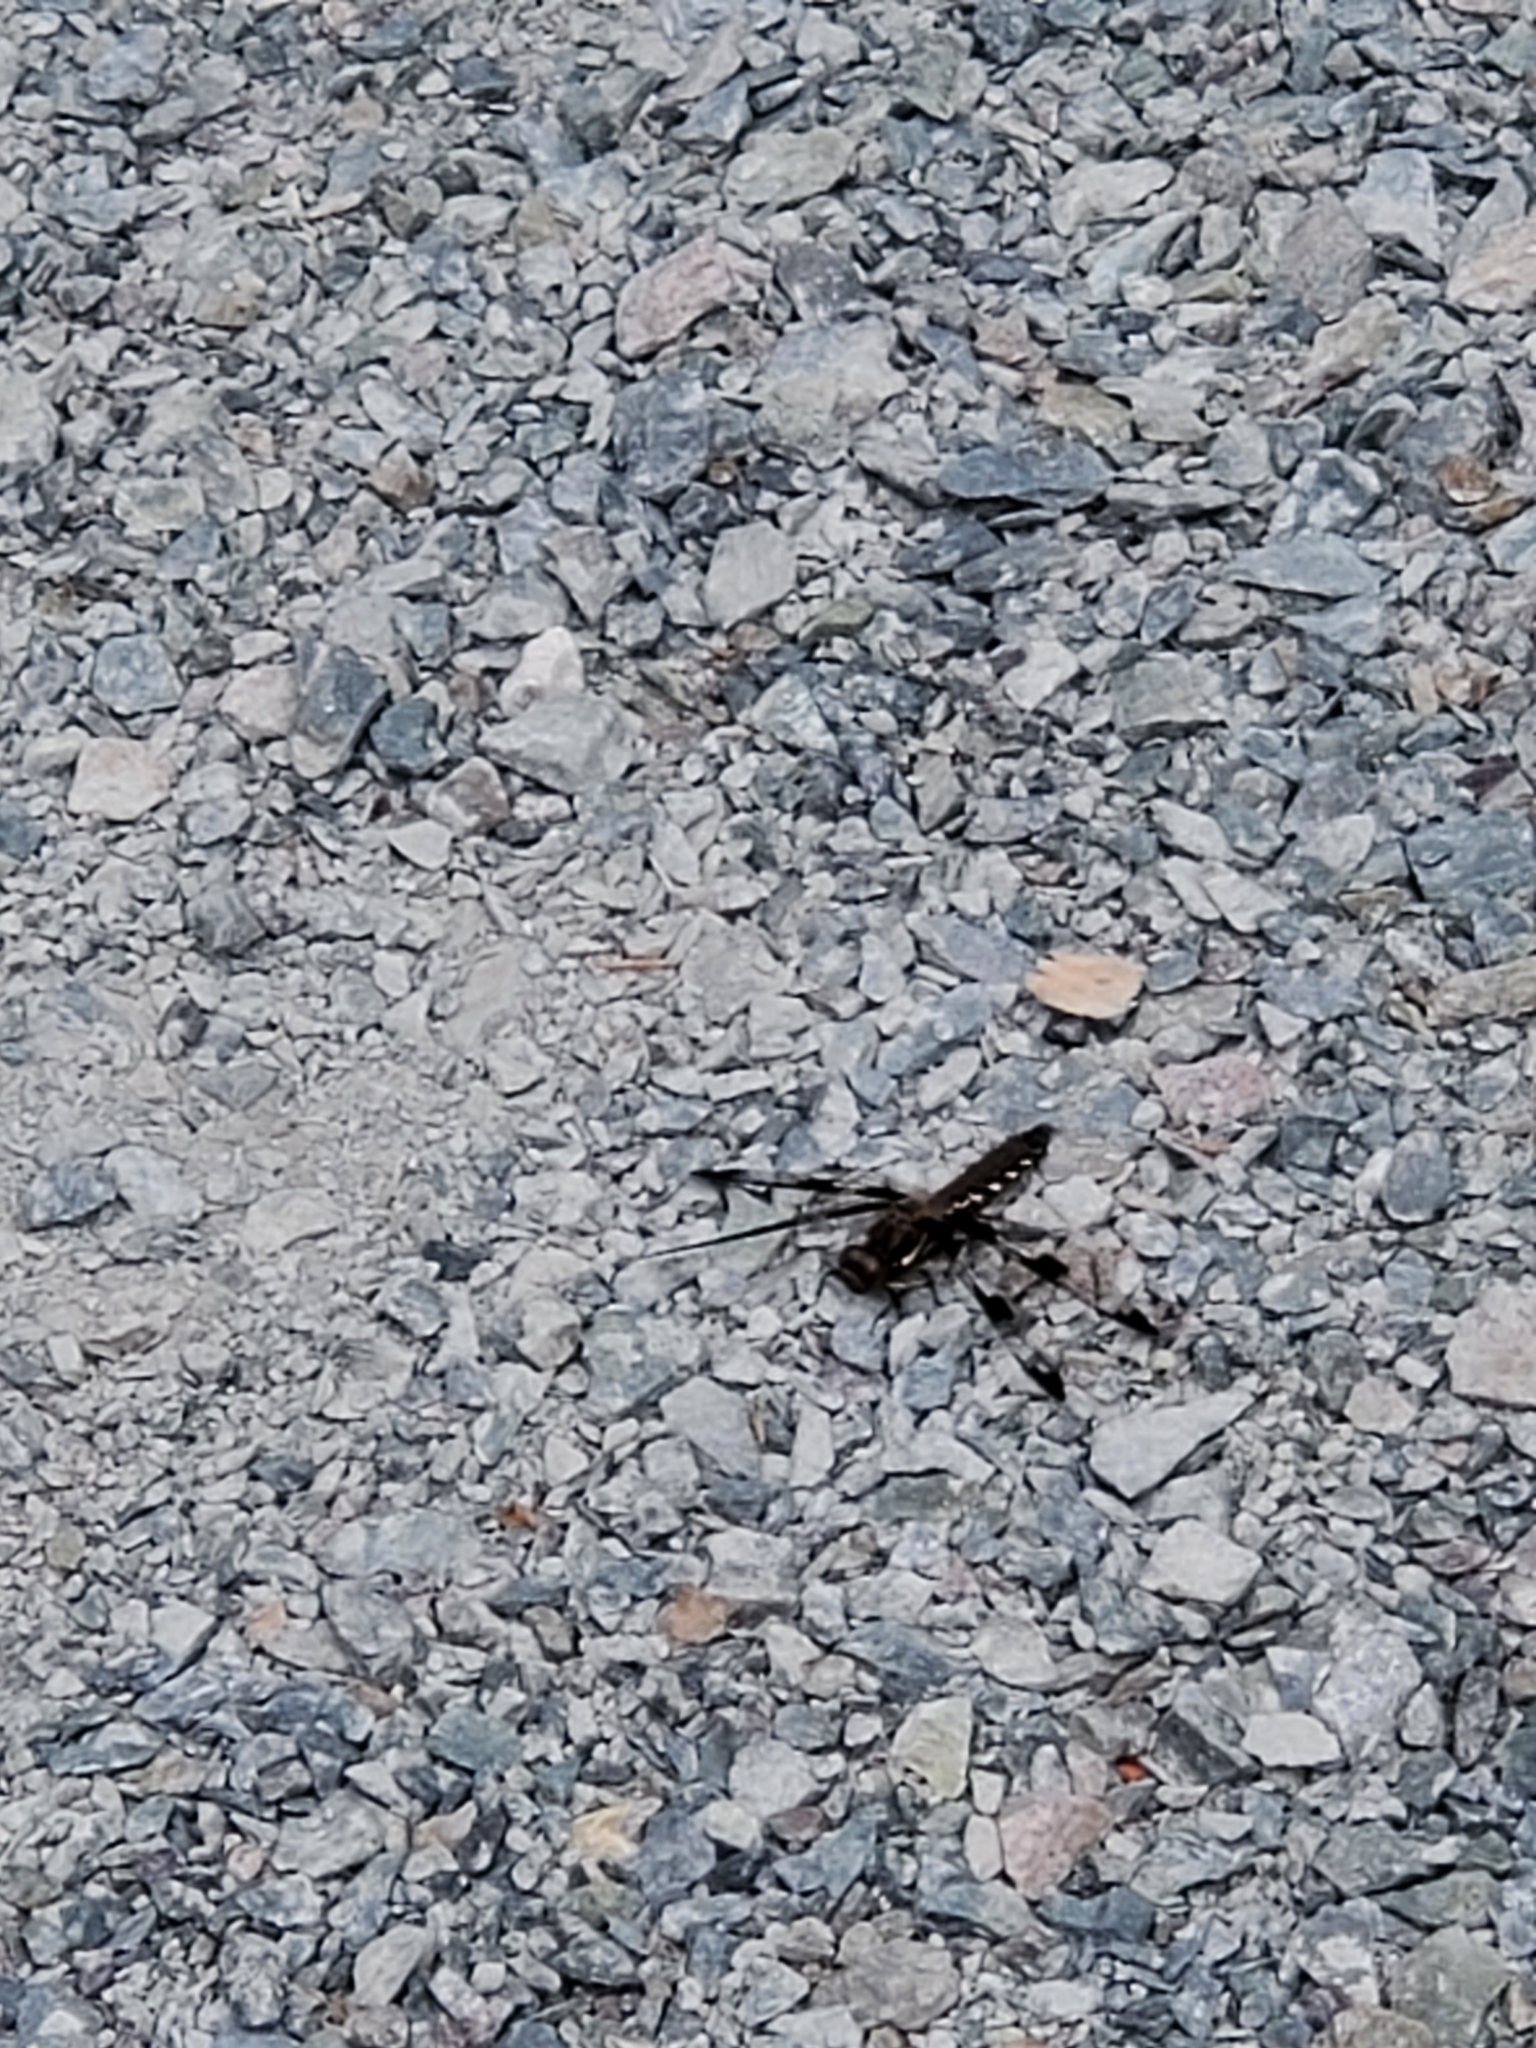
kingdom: Animalia
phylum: Arthropoda
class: Insecta
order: Odonata
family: Libellulidae
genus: Plathemis
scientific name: Plathemis lydia
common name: Common whitetail
